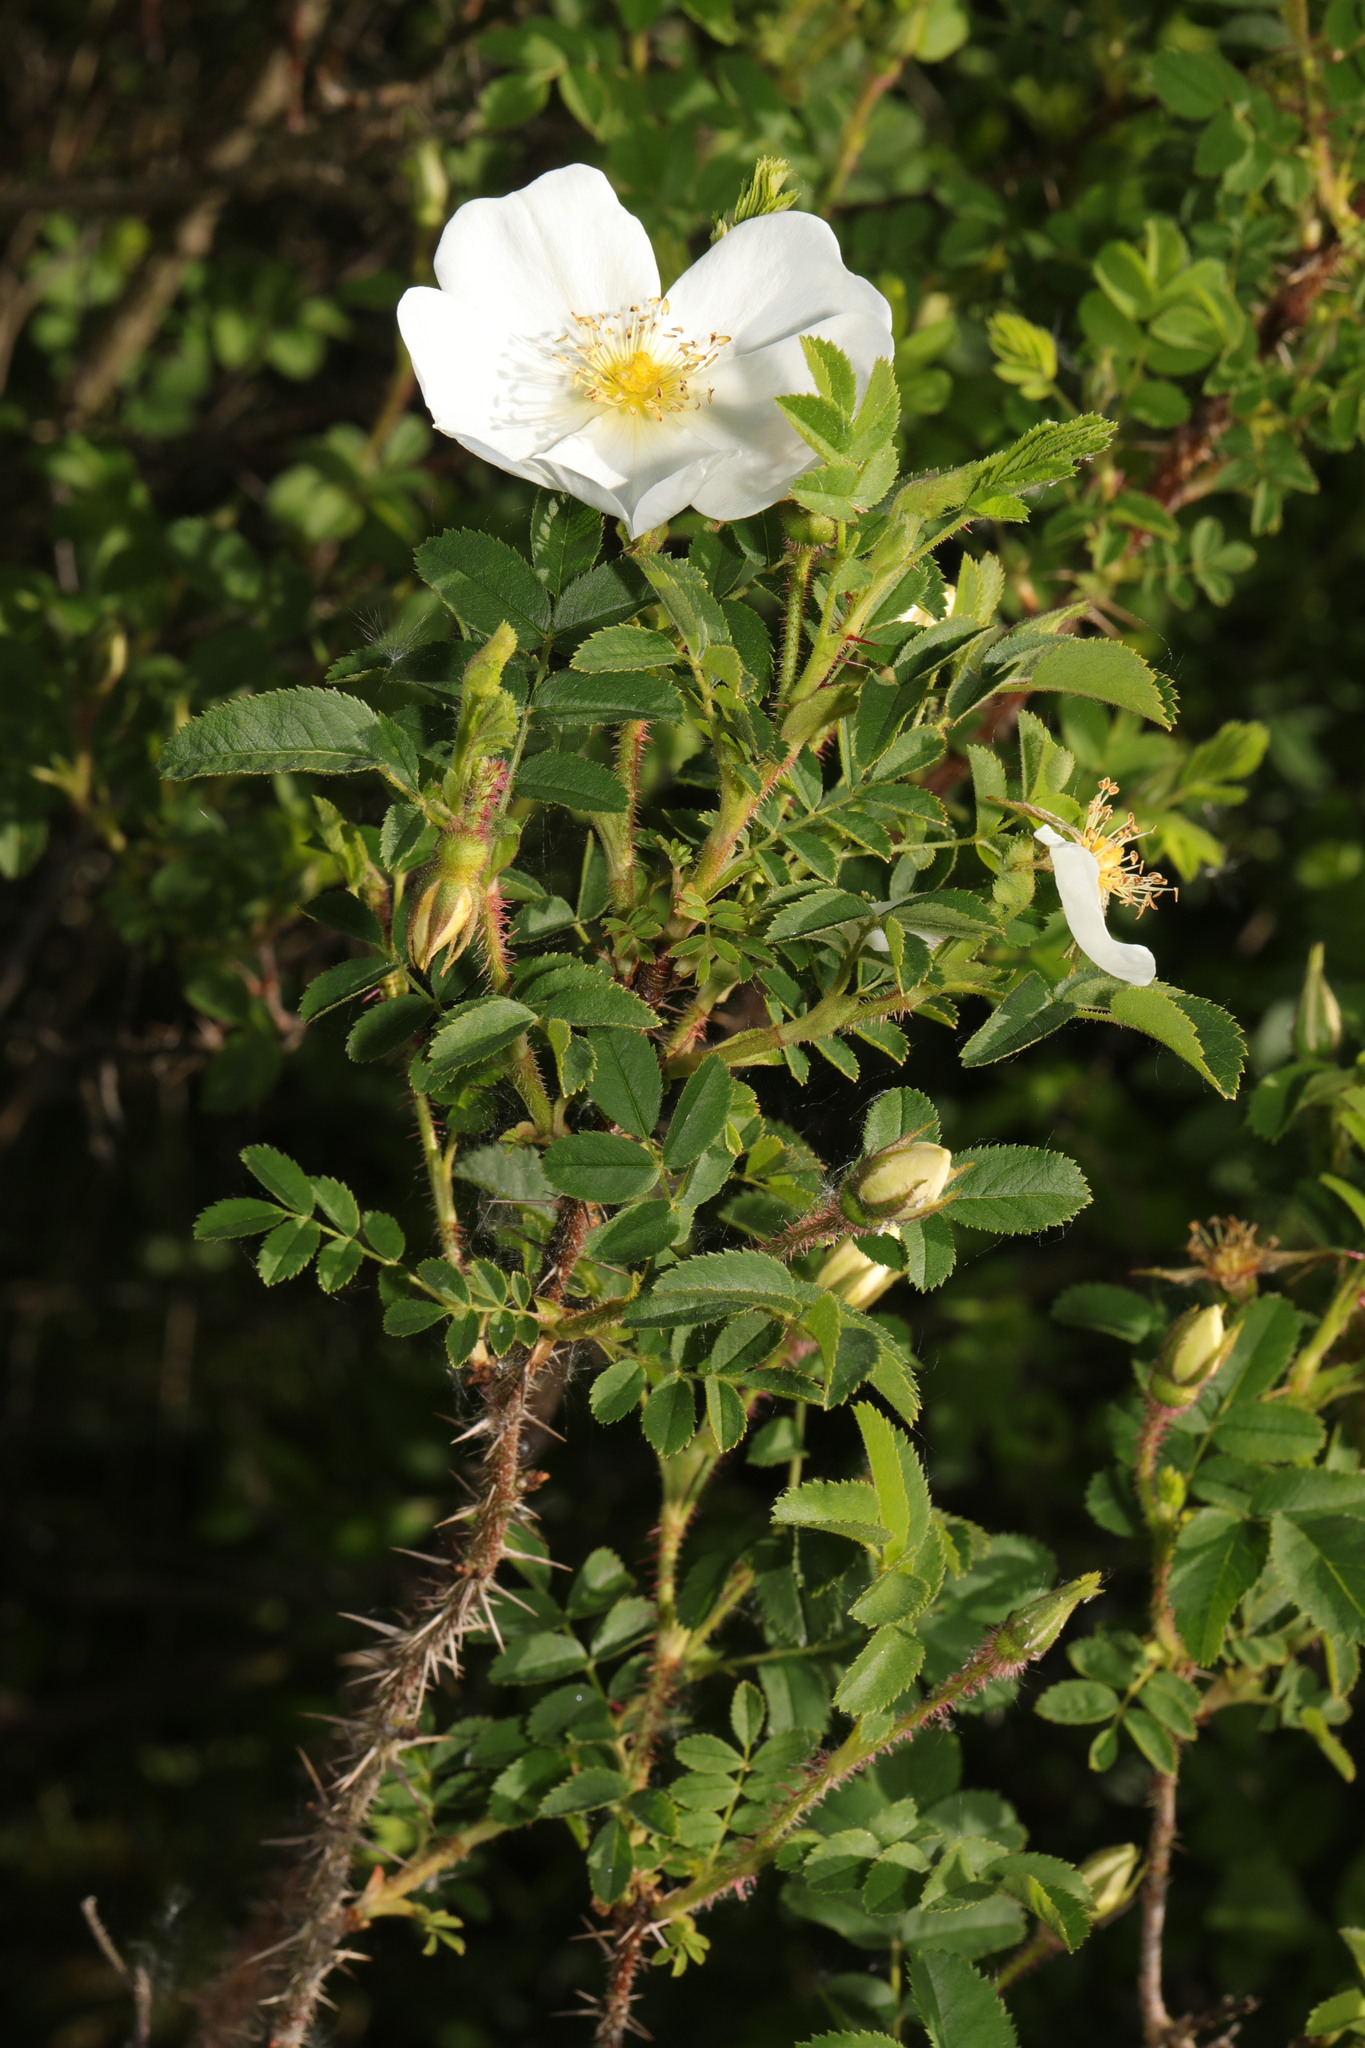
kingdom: Plantae
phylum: Tracheophyta
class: Magnoliopsida
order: Rosales
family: Rosaceae
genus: Rosa
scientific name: Rosa spinosissima
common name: Burnet rose
